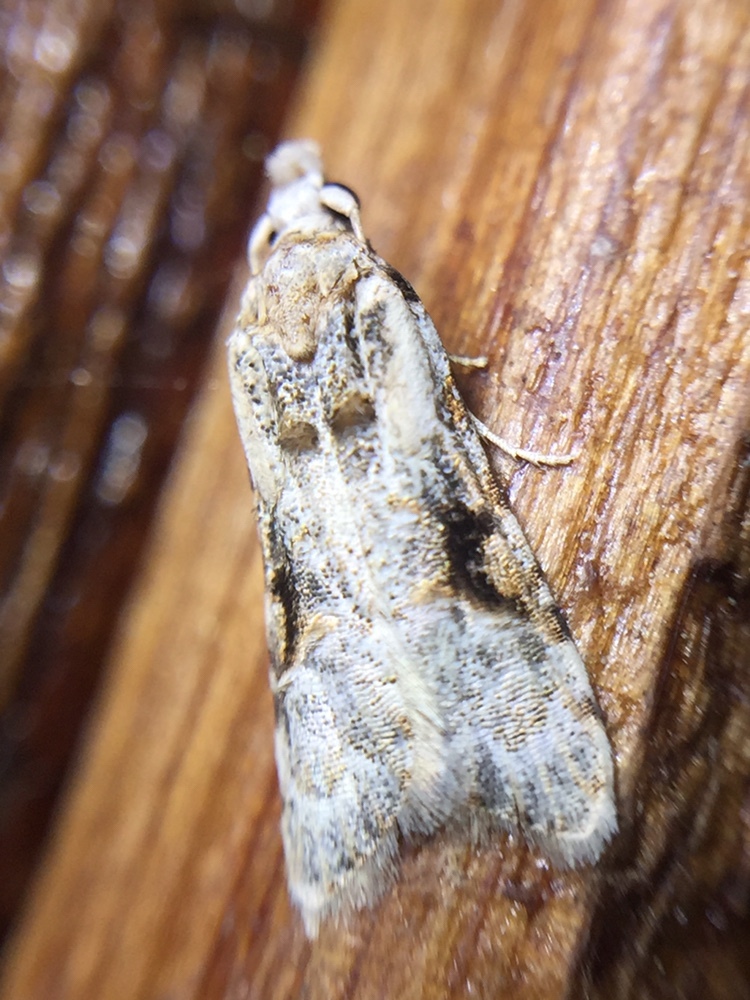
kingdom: Animalia
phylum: Arthropoda
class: Insecta
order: Lepidoptera
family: Carposinidae
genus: Coscinoptycha
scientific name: Coscinoptycha improbana
